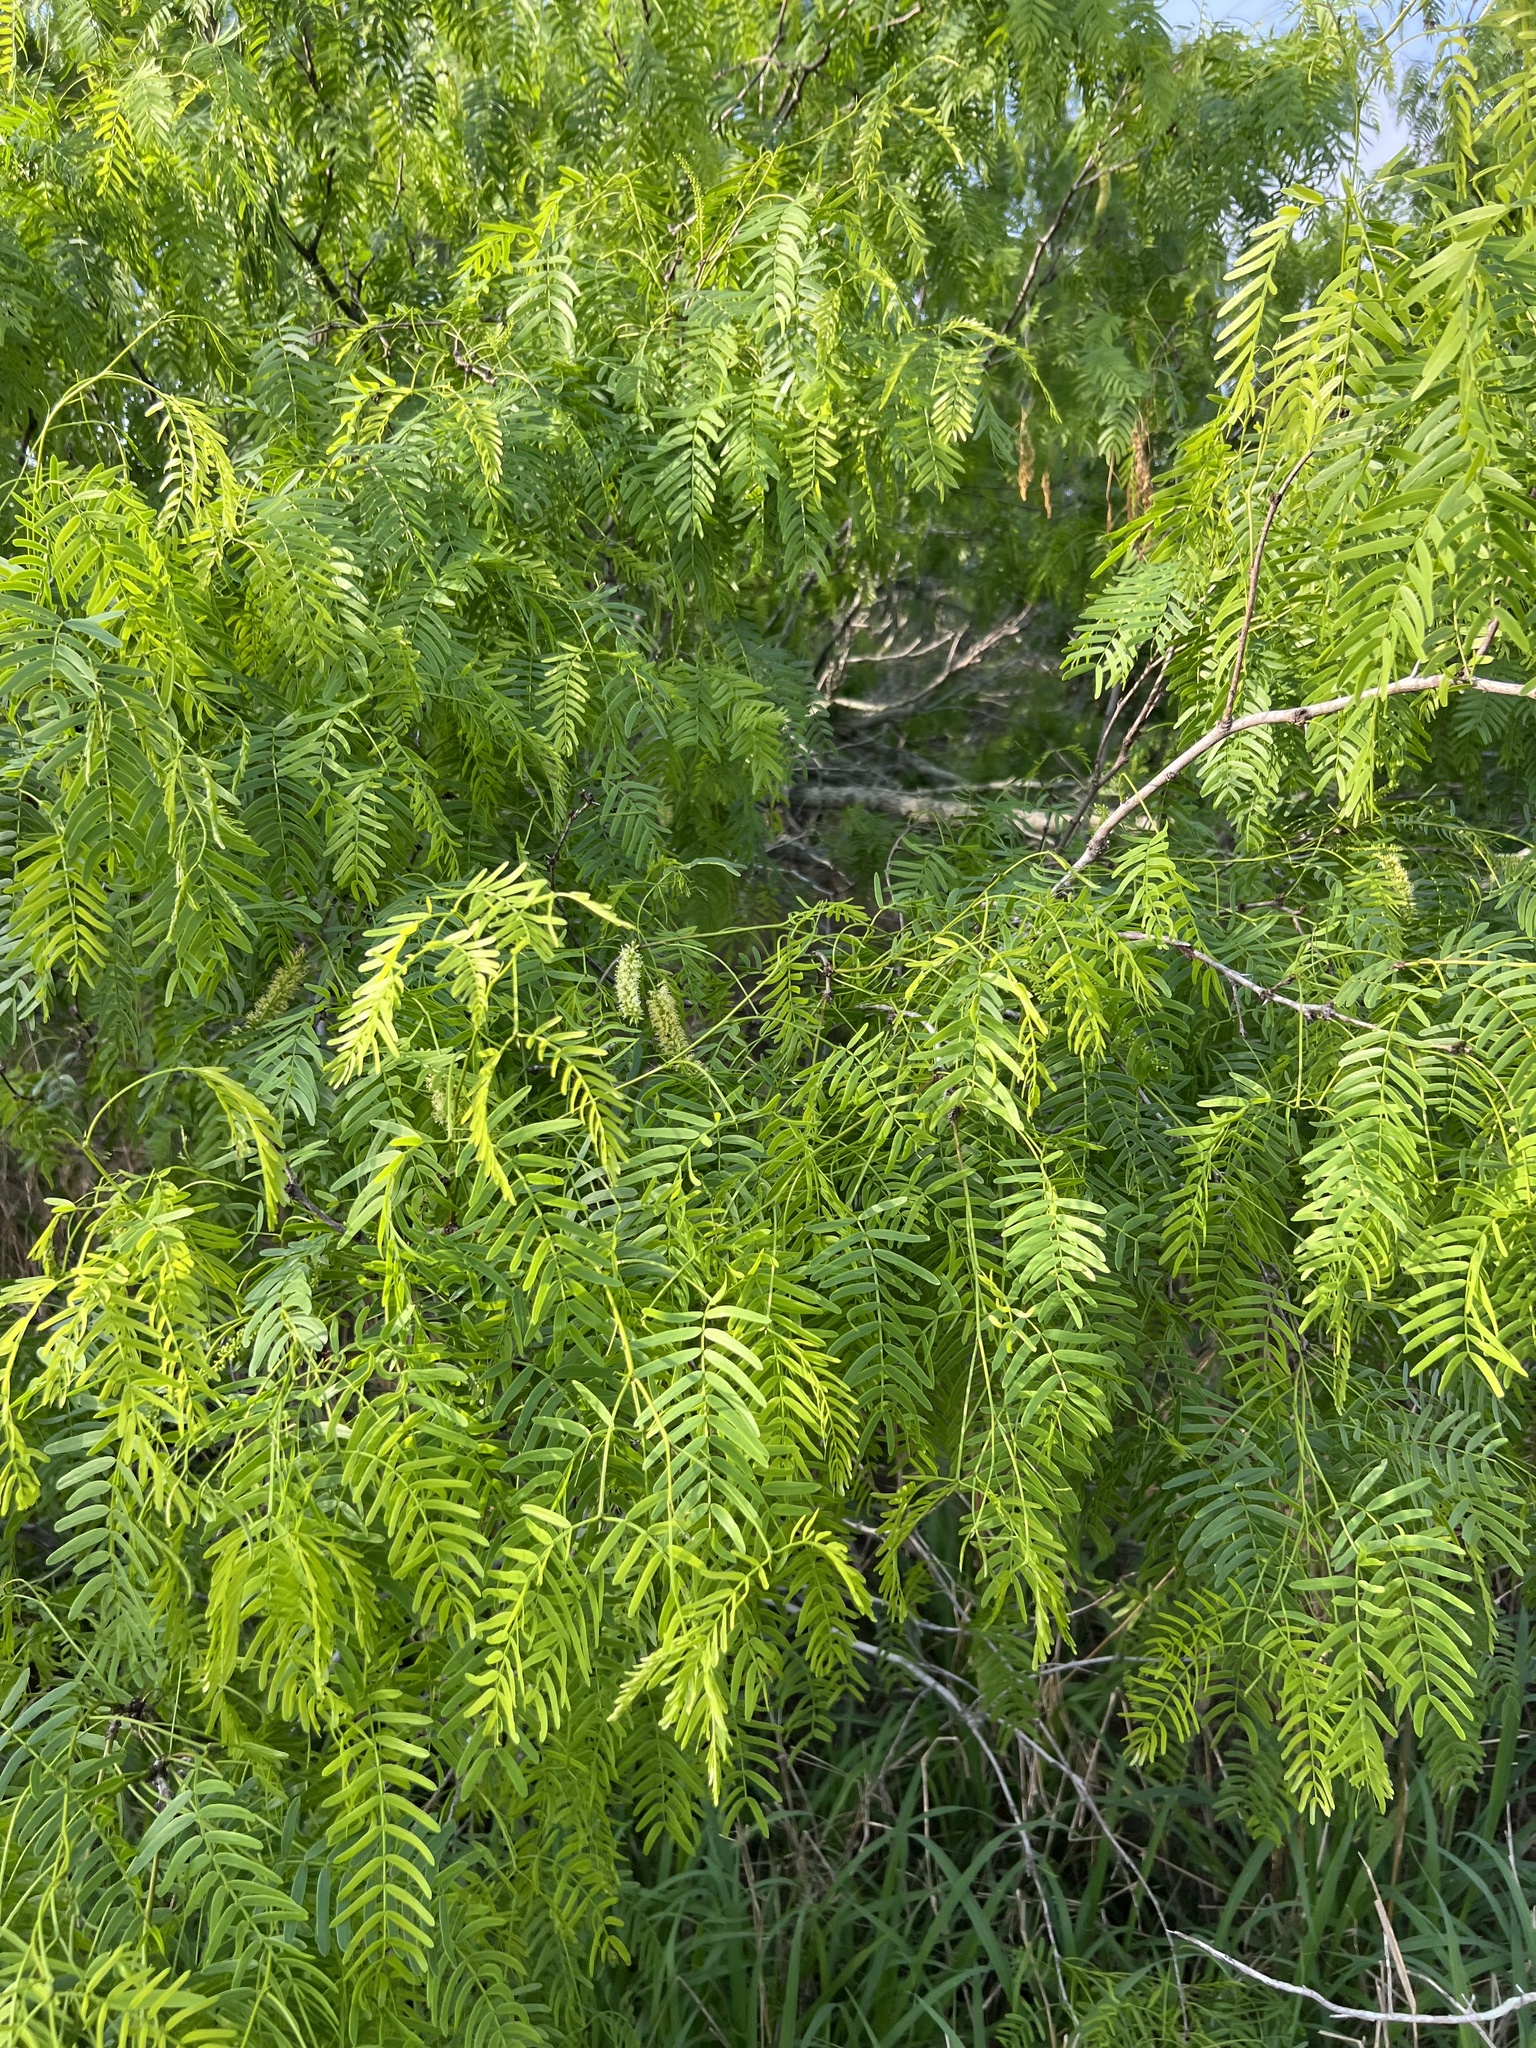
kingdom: Plantae
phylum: Tracheophyta
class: Magnoliopsida
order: Fabales
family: Fabaceae
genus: Prosopis
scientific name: Prosopis glandulosa
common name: Honey mesquite
